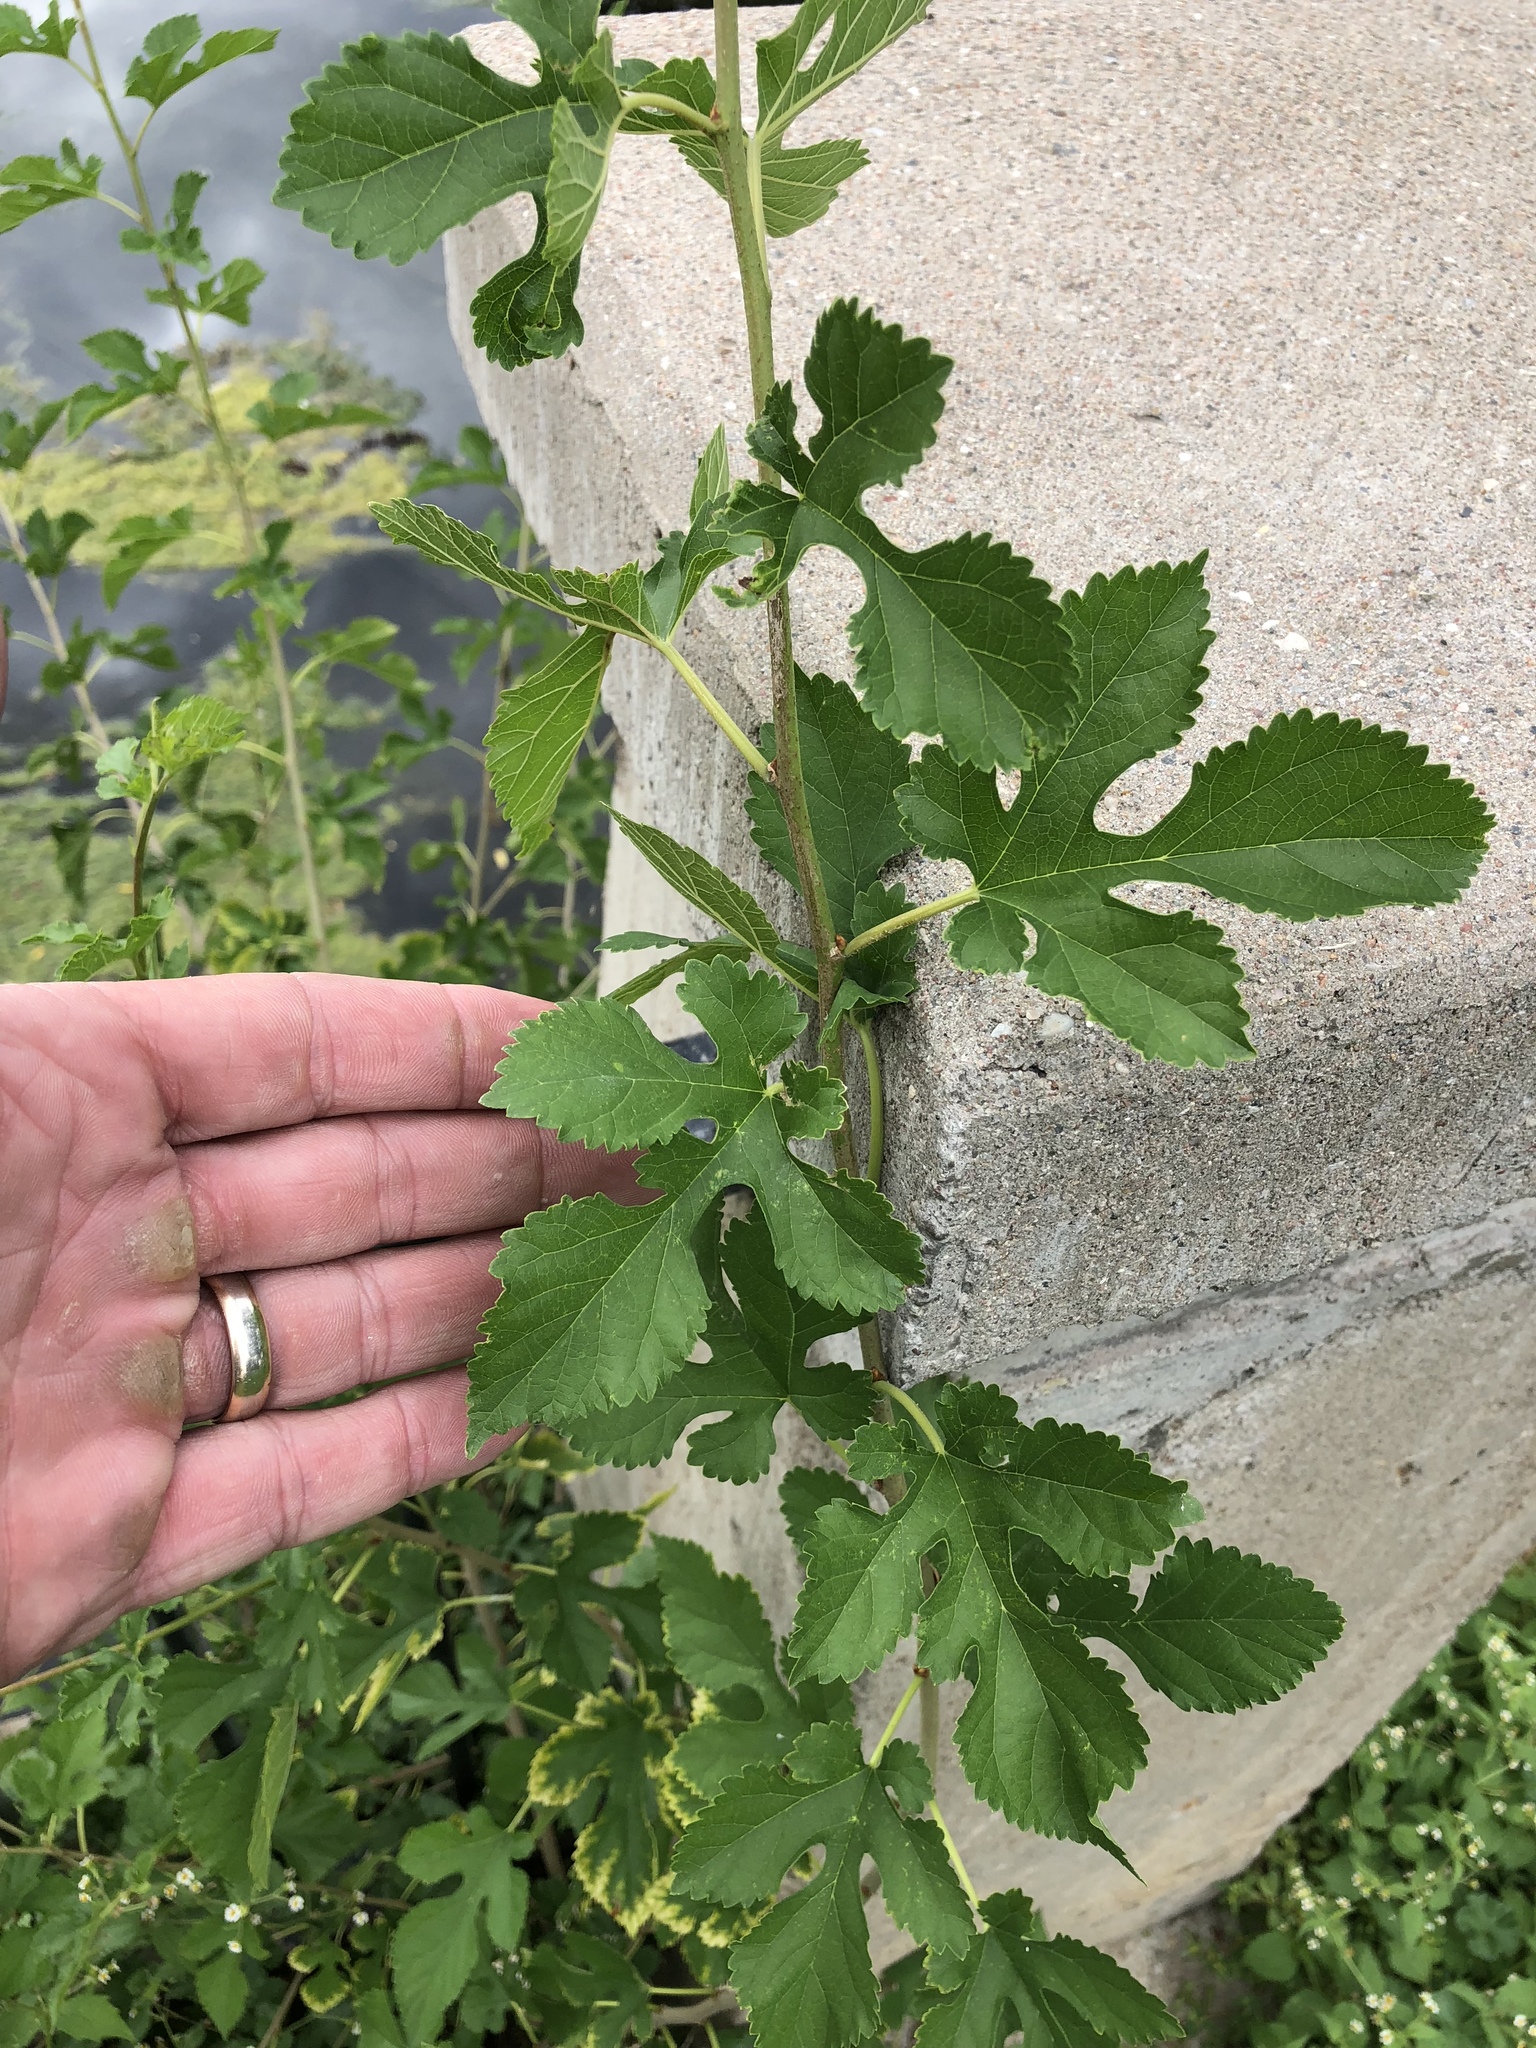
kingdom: Plantae
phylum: Tracheophyta
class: Magnoliopsida
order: Rosales
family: Moraceae
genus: Morus
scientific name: Morus alba
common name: White mulberry
